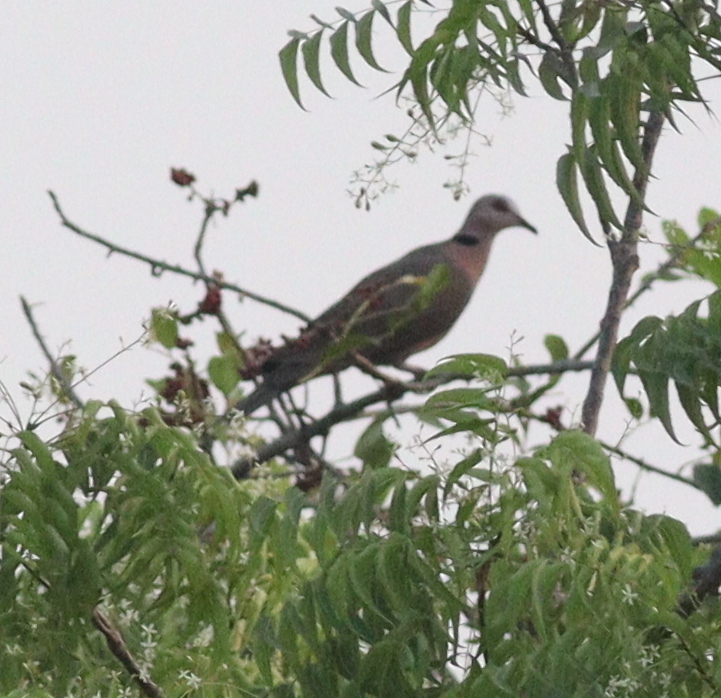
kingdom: Animalia
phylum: Chordata
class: Aves
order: Columbiformes
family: Columbidae
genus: Streptopelia
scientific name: Streptopelia semitorquata
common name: Red-eyed dove
